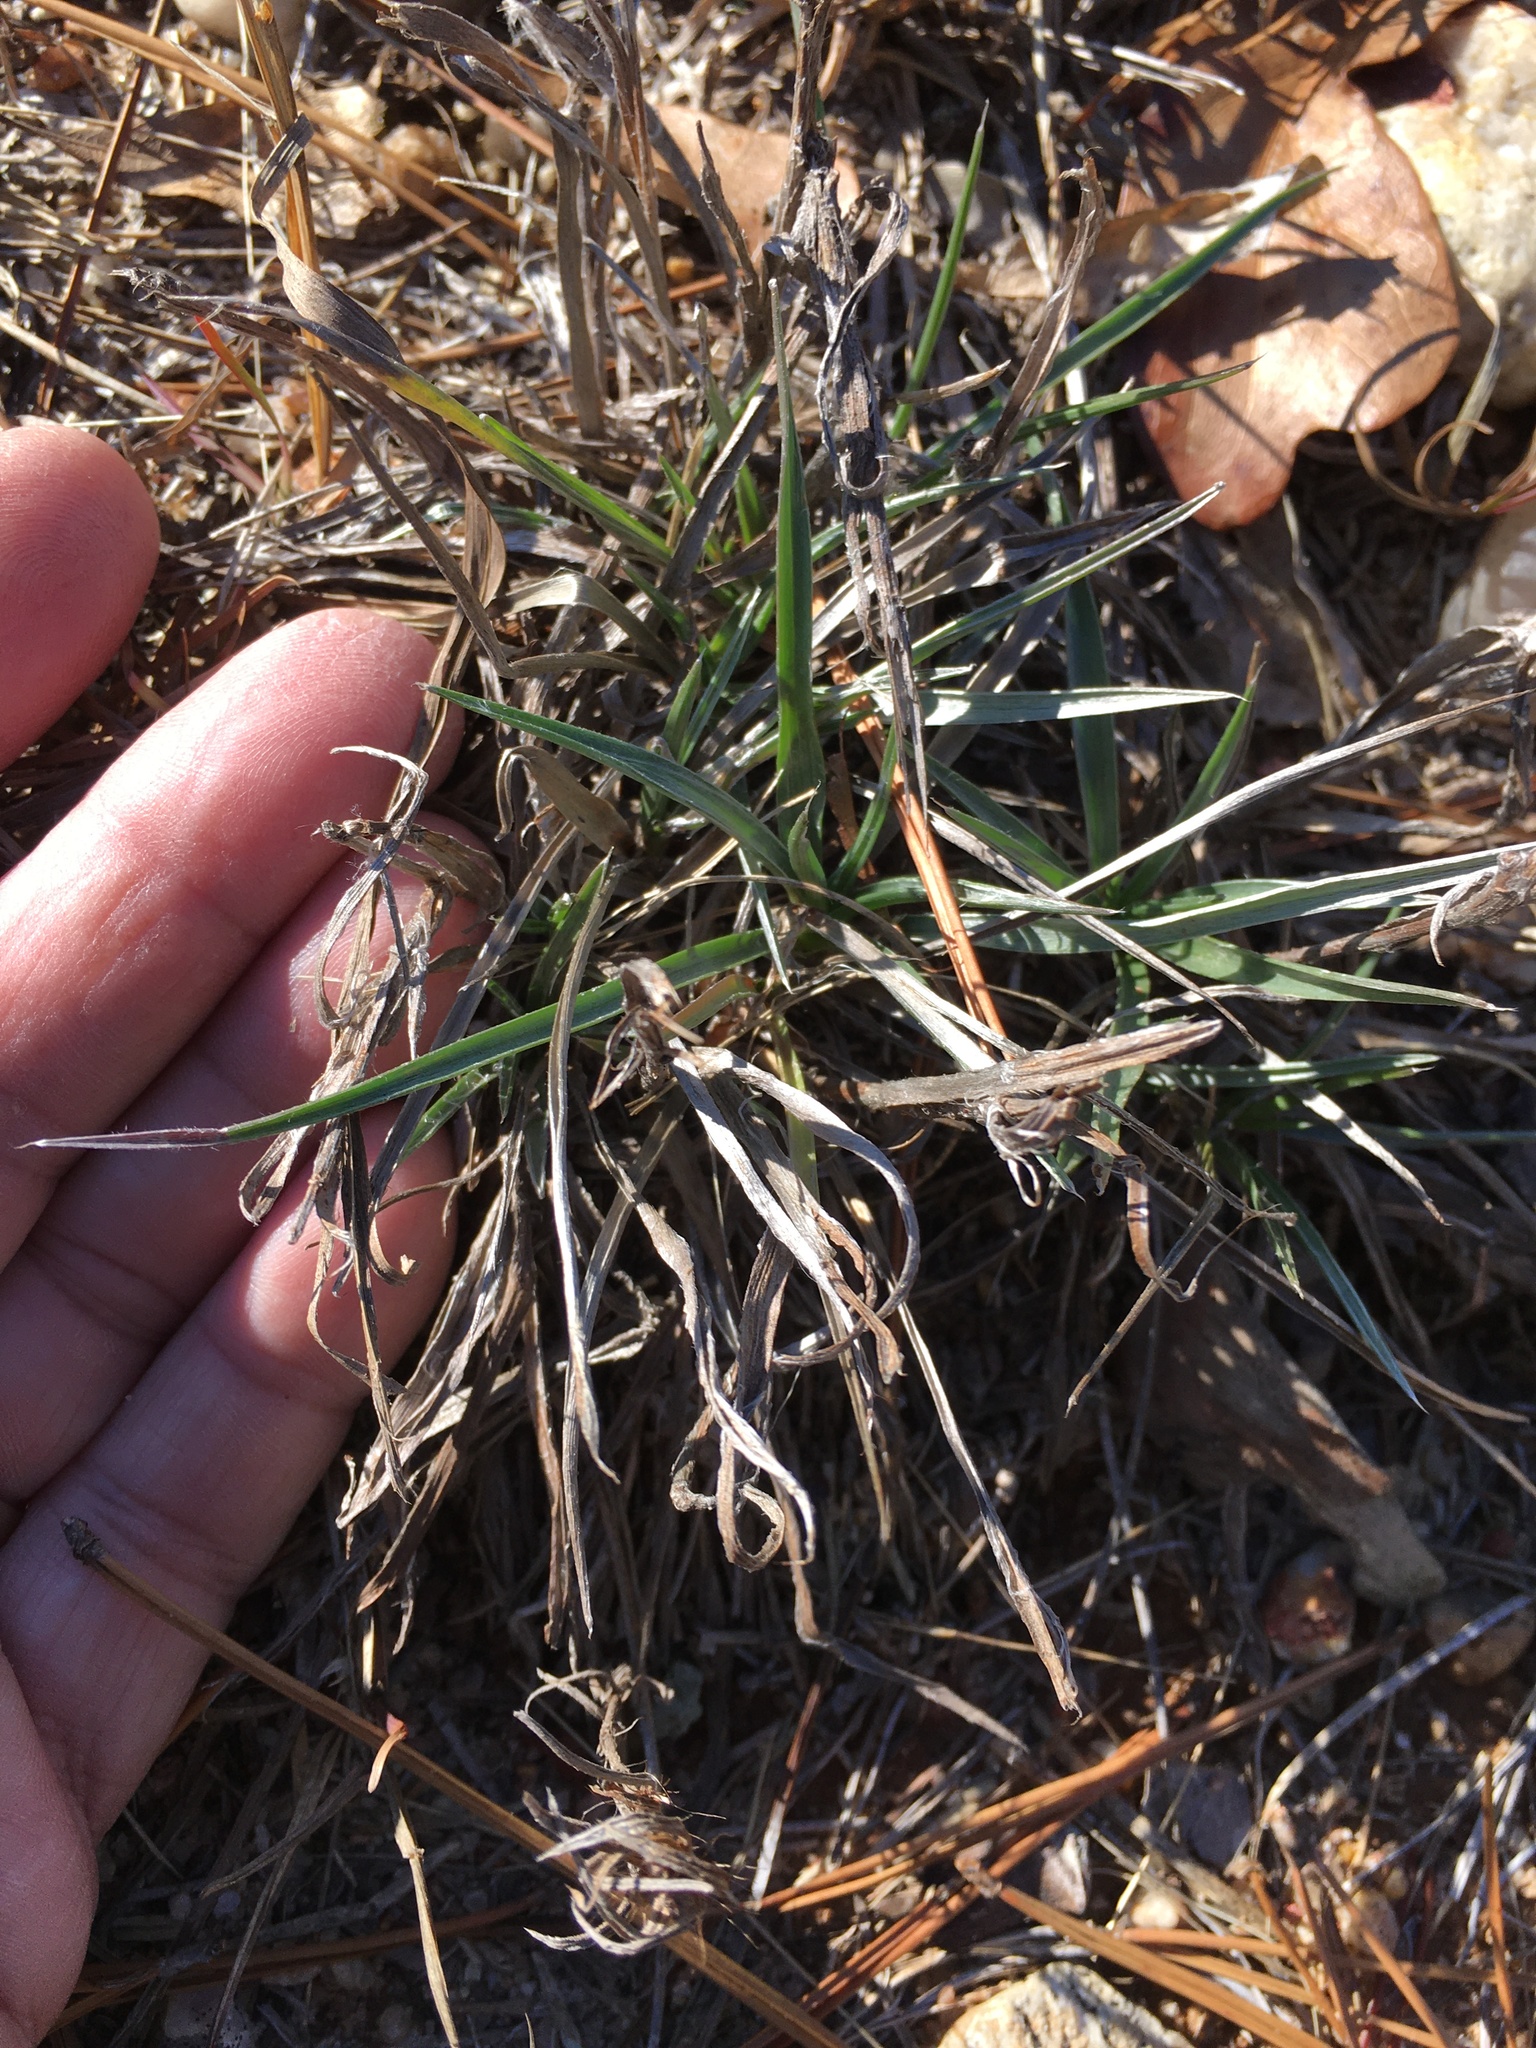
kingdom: Plantae
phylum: Tracheophyta
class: Magnoliopsida
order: Asterales
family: Asteraceae
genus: Pityopsis
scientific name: Pityopsis aspera
